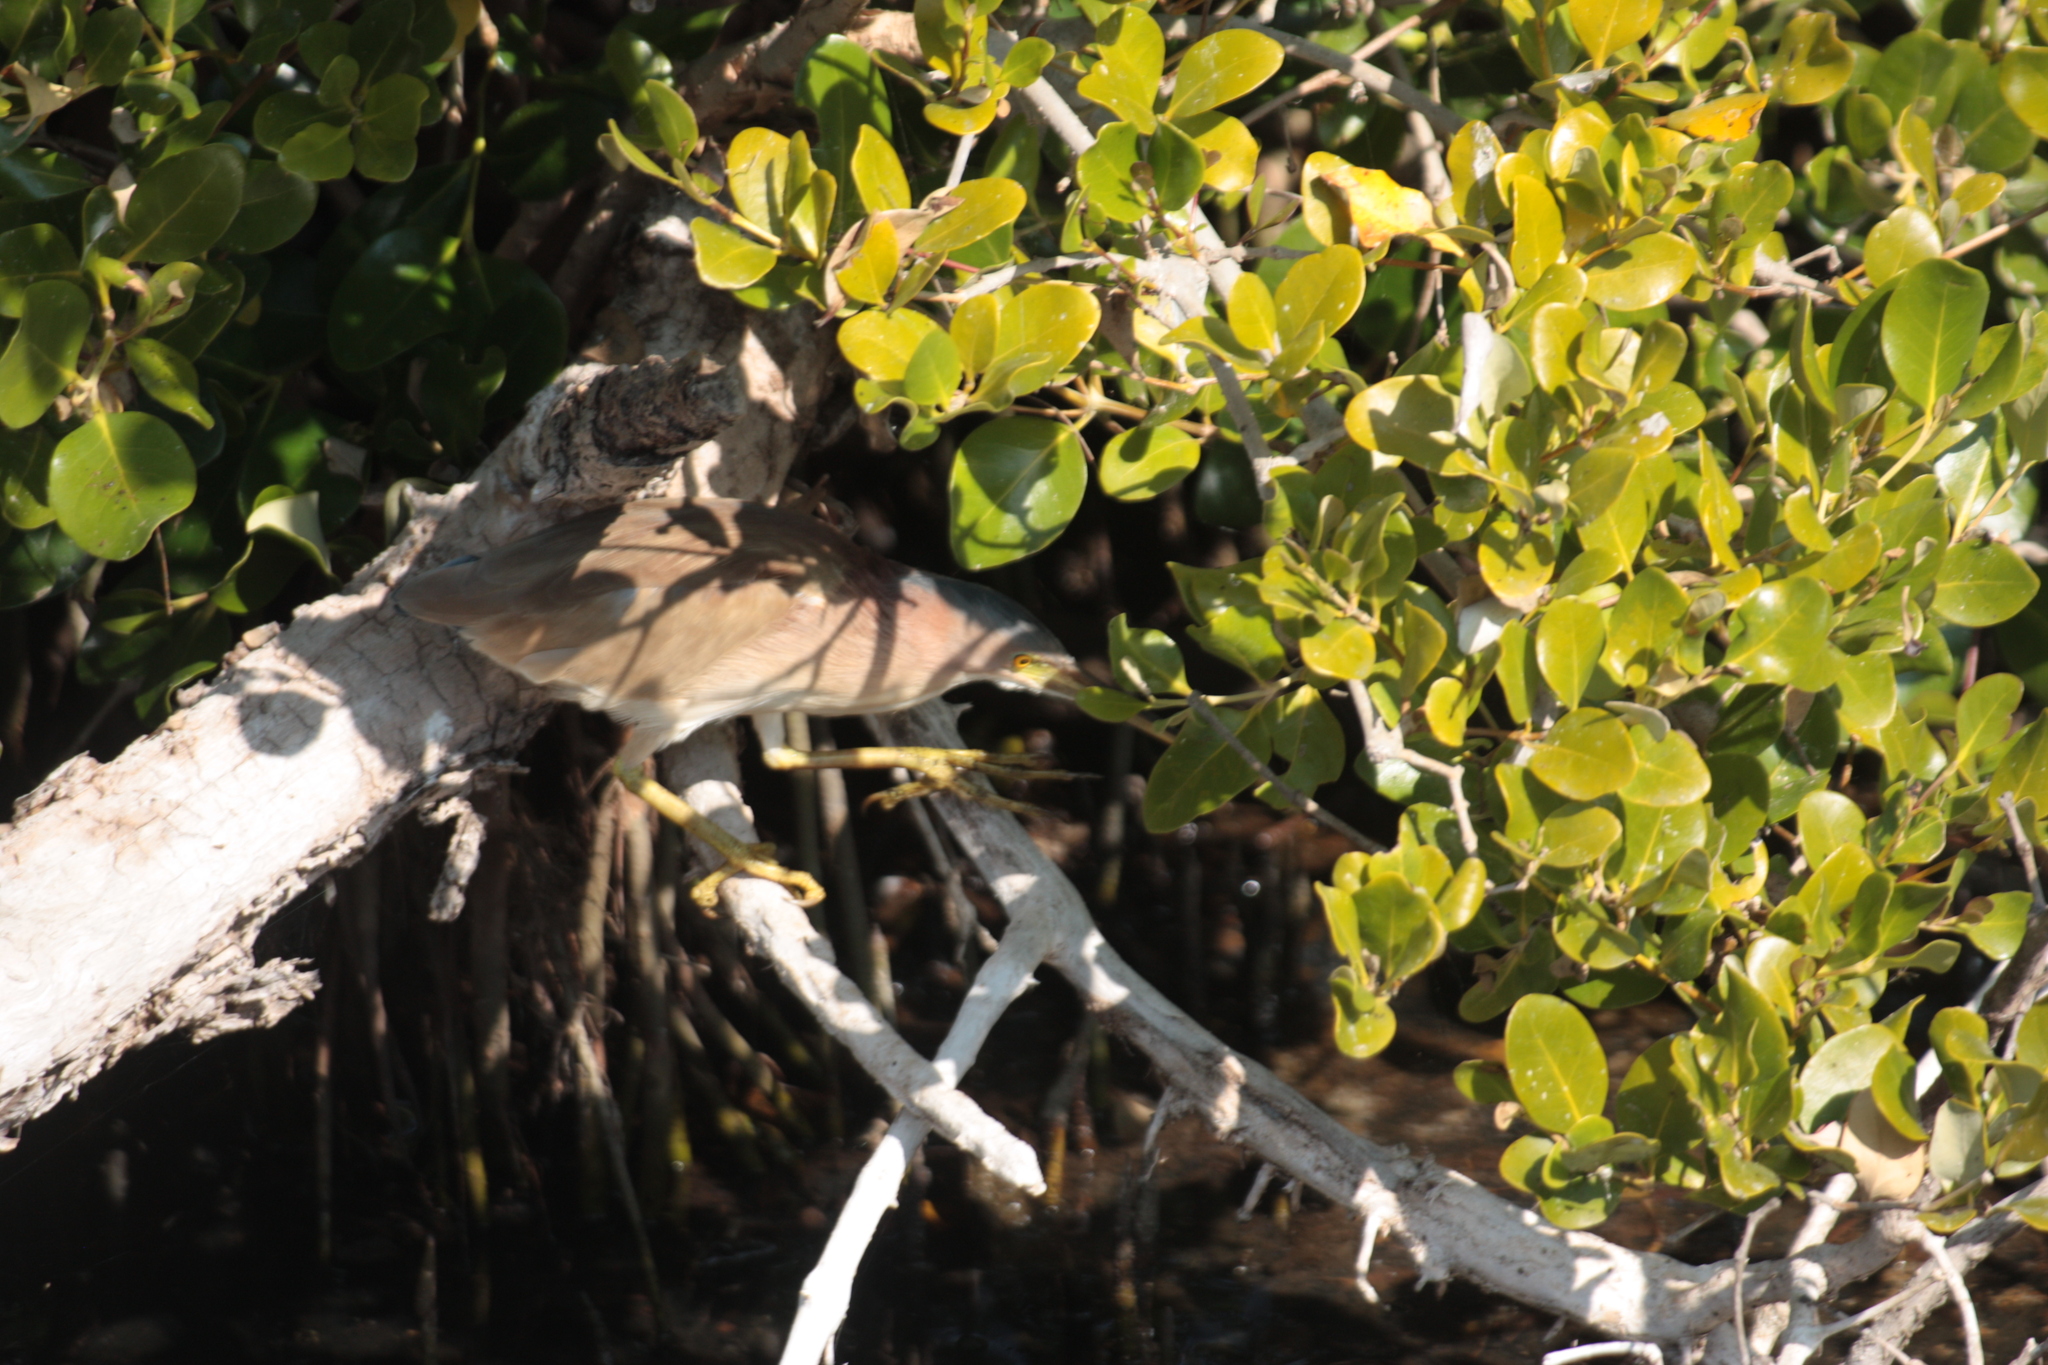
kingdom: Animalia
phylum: Chordata
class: Aves
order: Pelecaniformes
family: Ardeidae
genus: Ixobrychus
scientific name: Ixobrychus sinensis
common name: Yellow bittern
